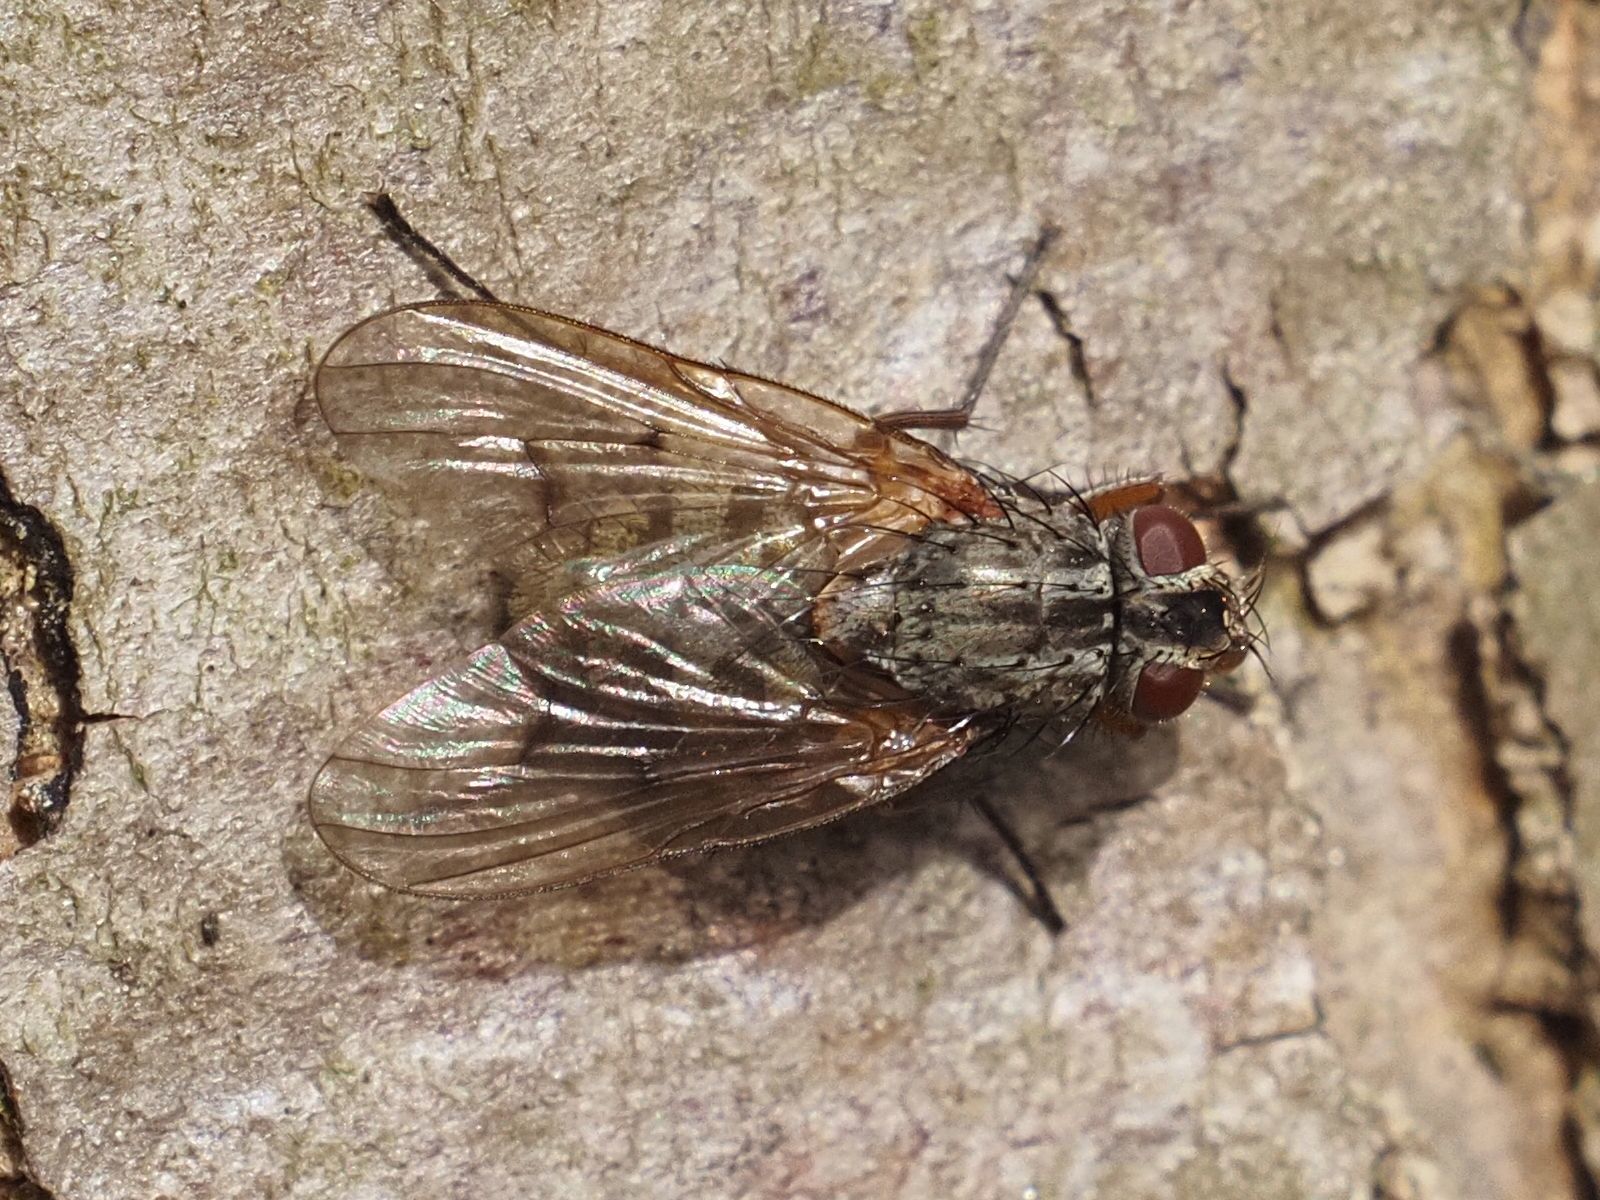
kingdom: Animalia
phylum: Arthropoda
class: Insecta
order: Diptera
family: Muscidae
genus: Phaonia
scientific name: Phaonia tuguriorum
